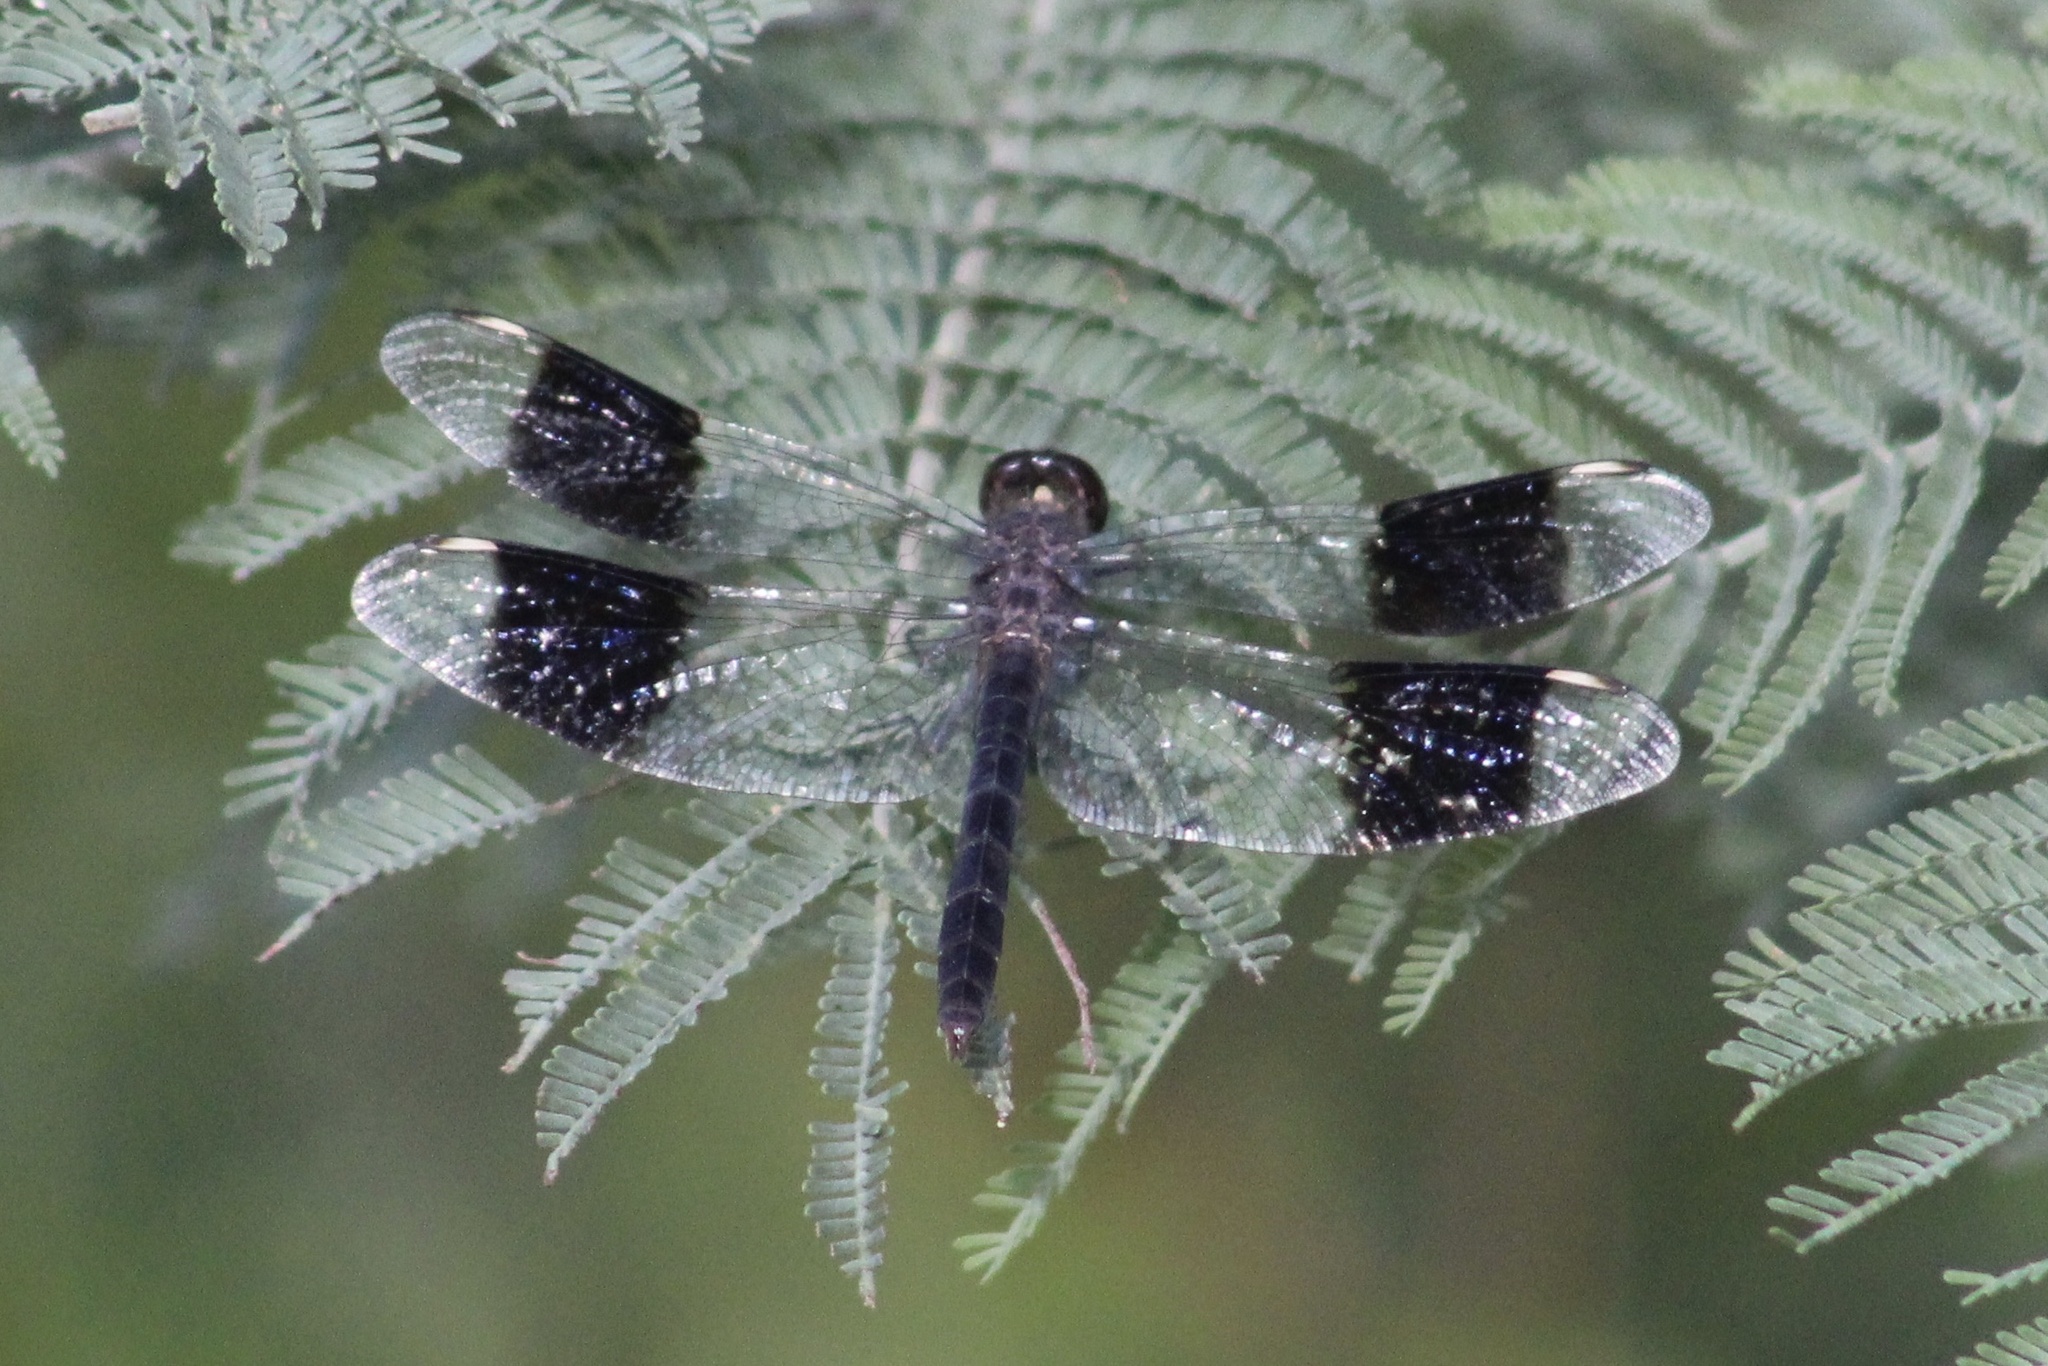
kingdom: Animalia
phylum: Arthropoda
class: Insecta
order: Odonata
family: Libellulidae
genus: Brachythemis
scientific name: Brachythemis leucosticta
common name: Banded groundling
